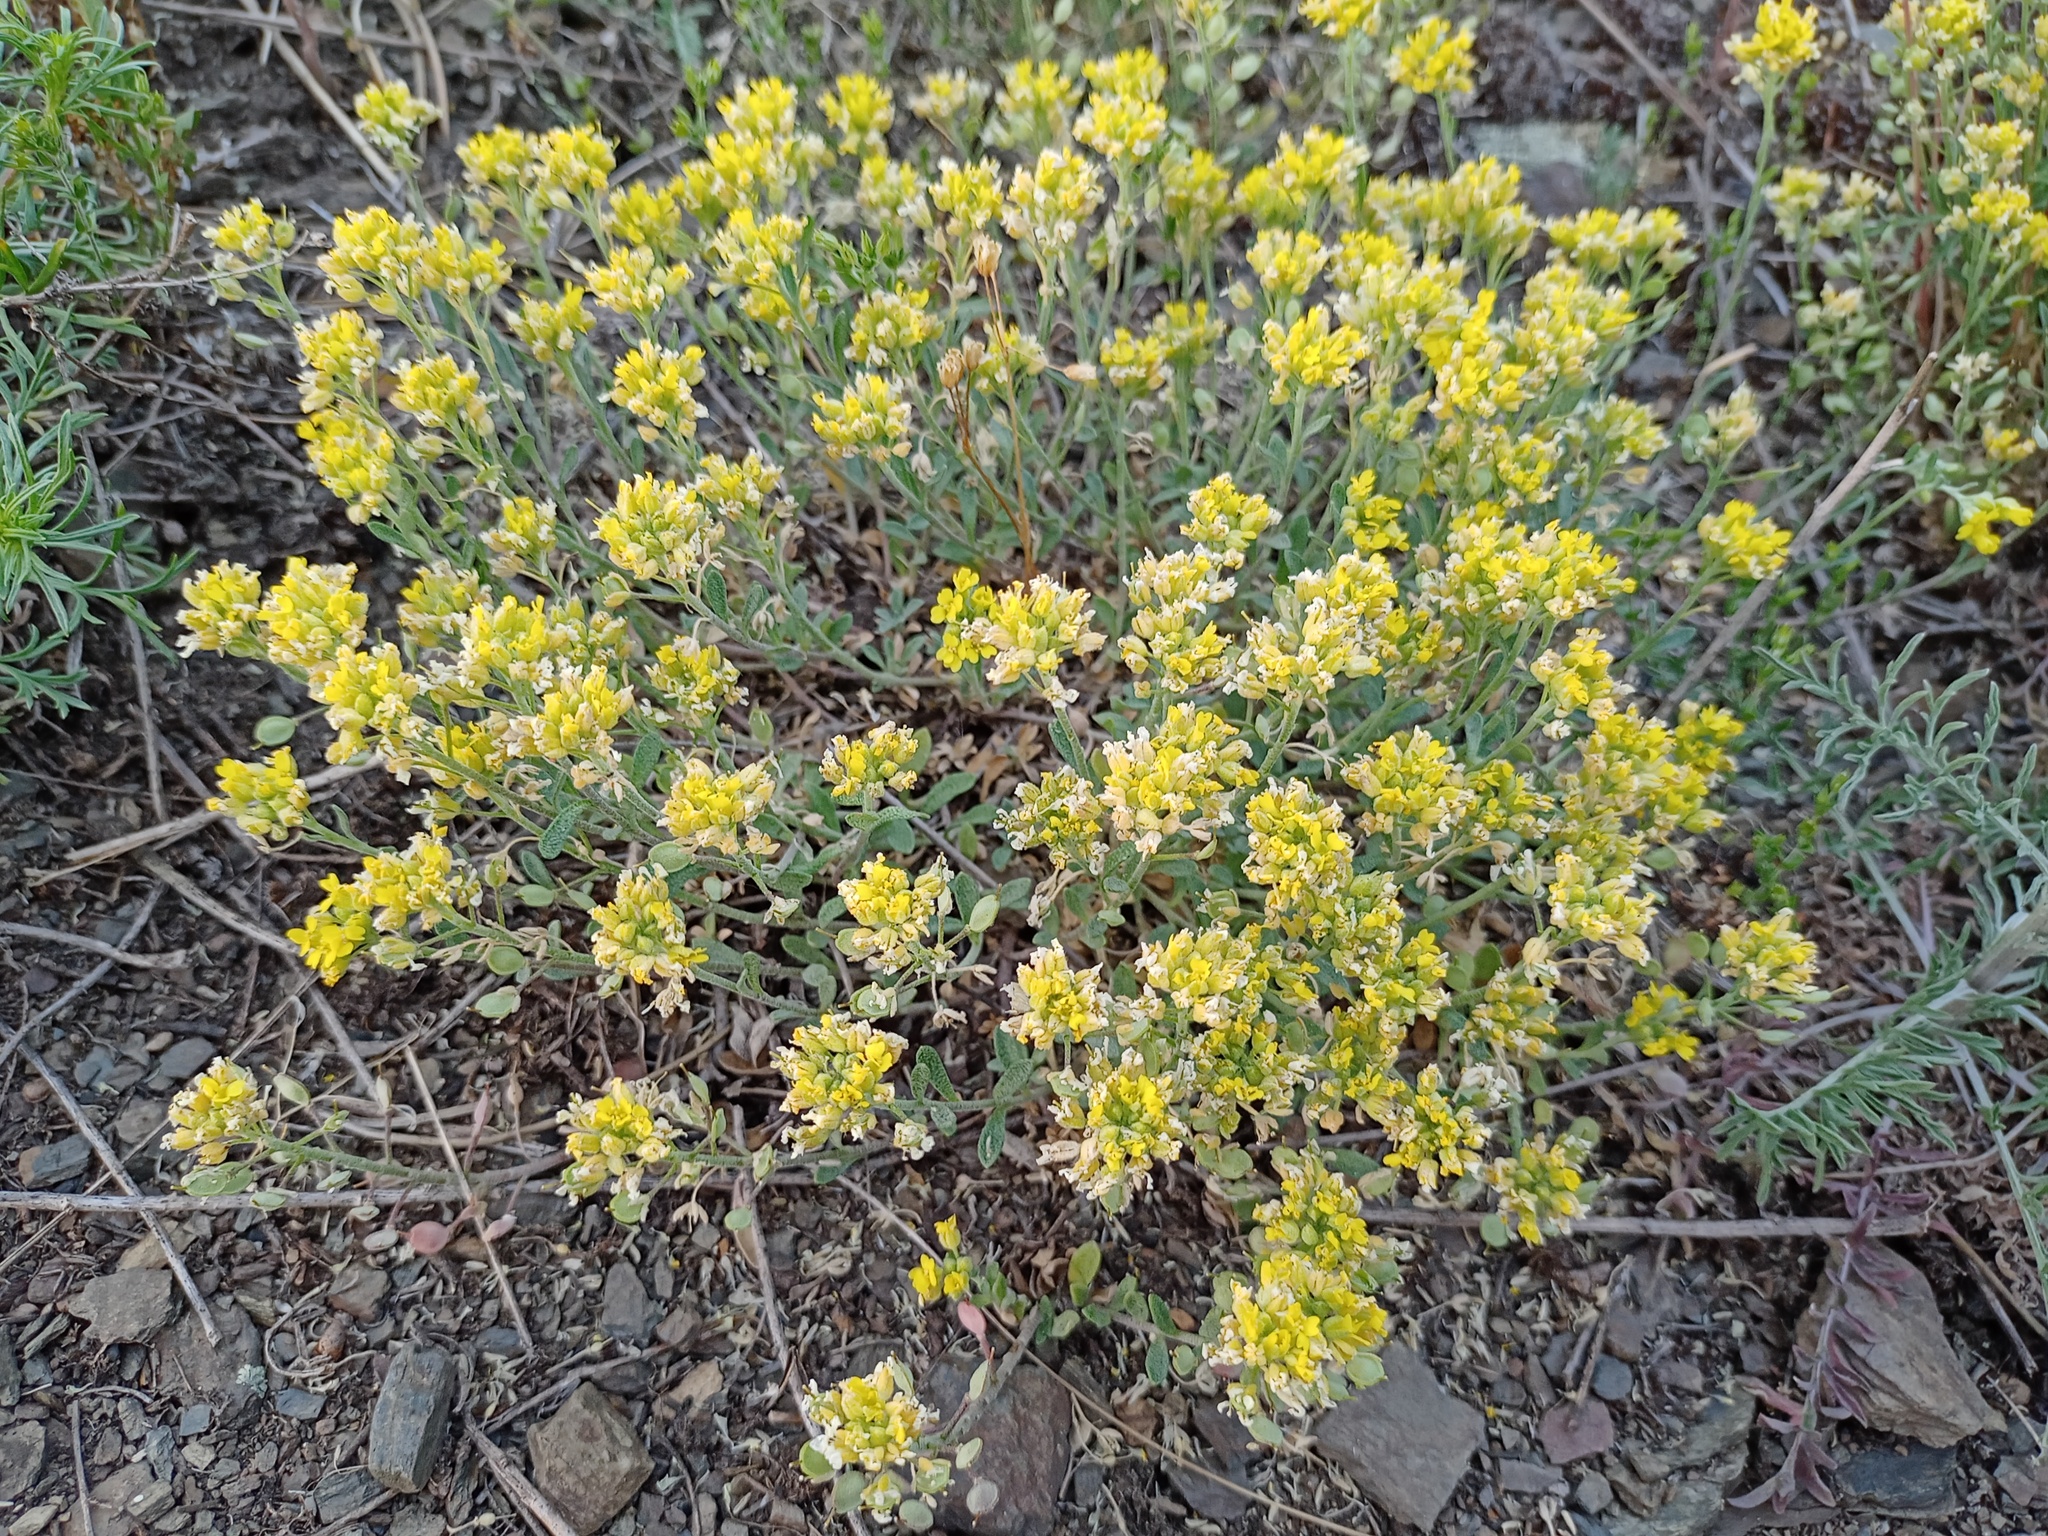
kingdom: Plantae
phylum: Tracheophyta
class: Magnoliopsida
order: Brassicales
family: Brassicaceae
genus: Alyssum
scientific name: Alyssum gmelinii
